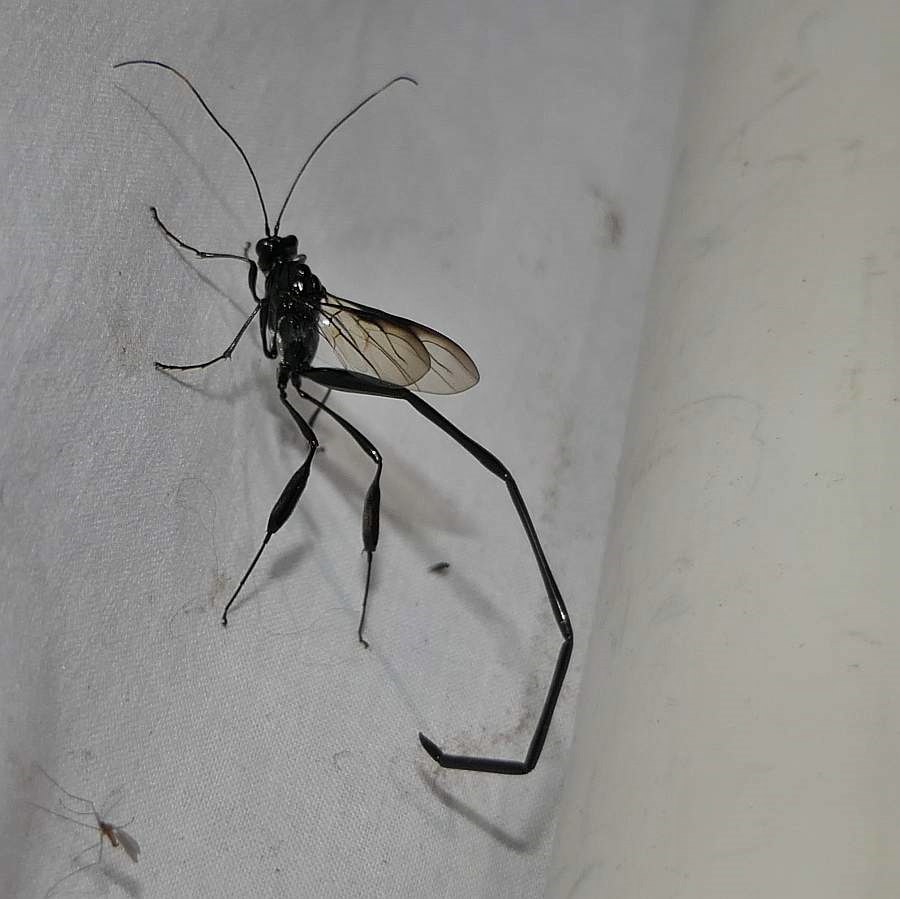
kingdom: Animalia
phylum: Arthropoda
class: Insecta
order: Hymenoptera
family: Pelecinidae
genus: Pelecinus
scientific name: Pelecinus polyturator
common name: American pelecinid wasp
